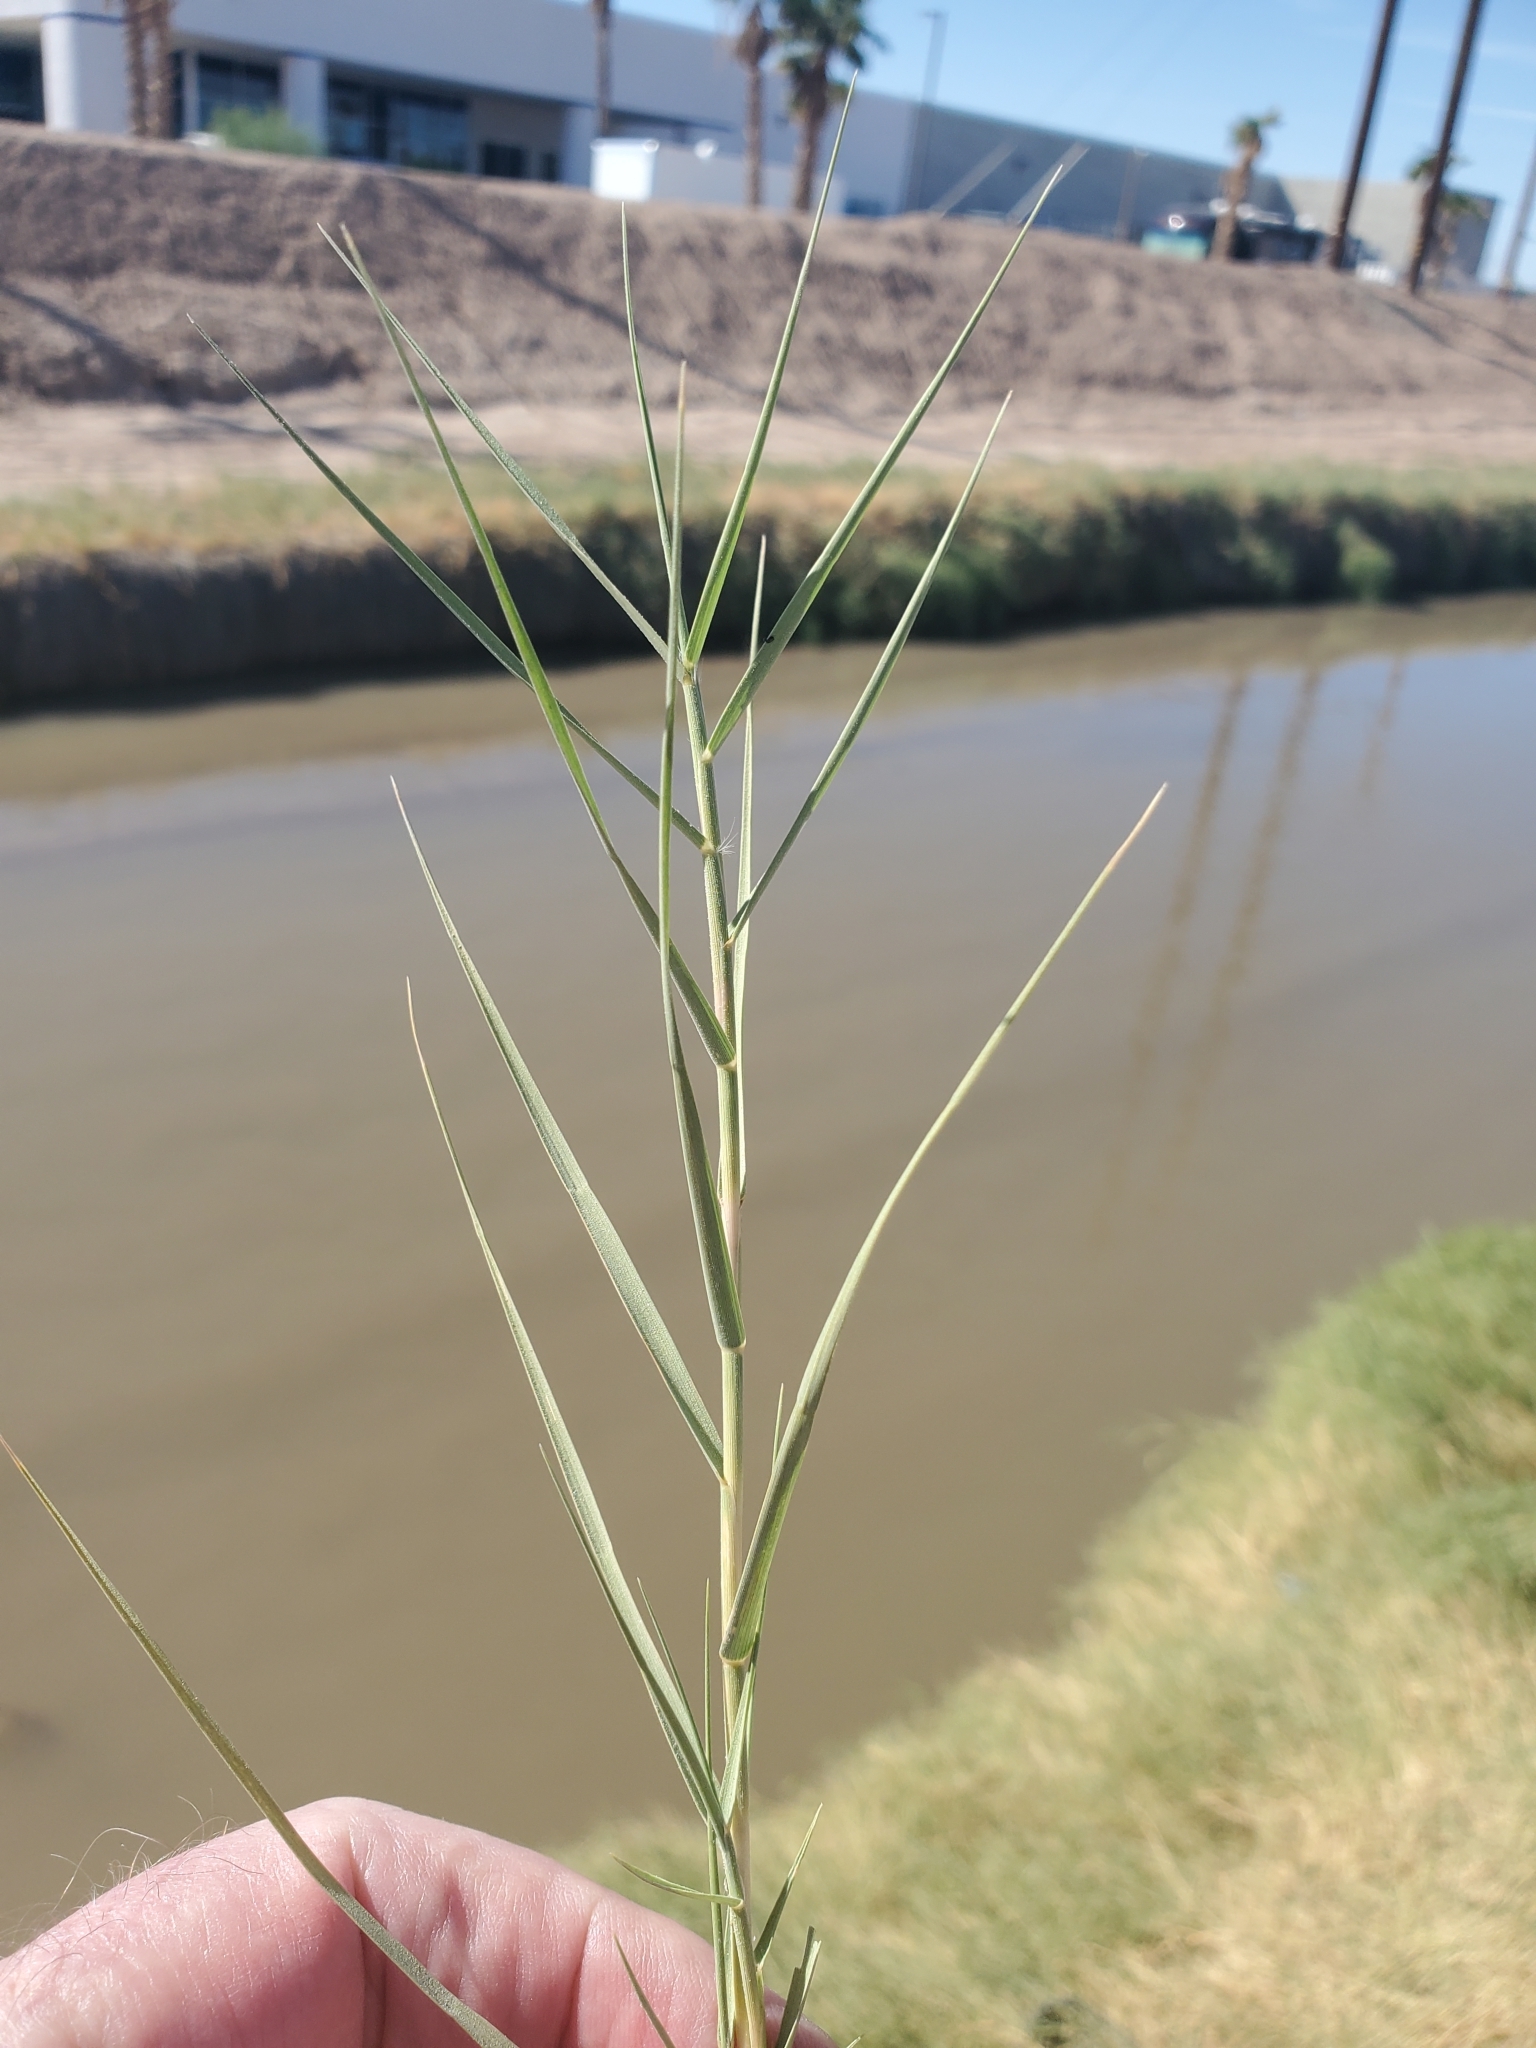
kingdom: Plantae
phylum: Tracheophyta
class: Liliopsida
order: Poales
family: Poaceae
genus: Distichlis
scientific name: Distichlis spicata
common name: Saltgrass
